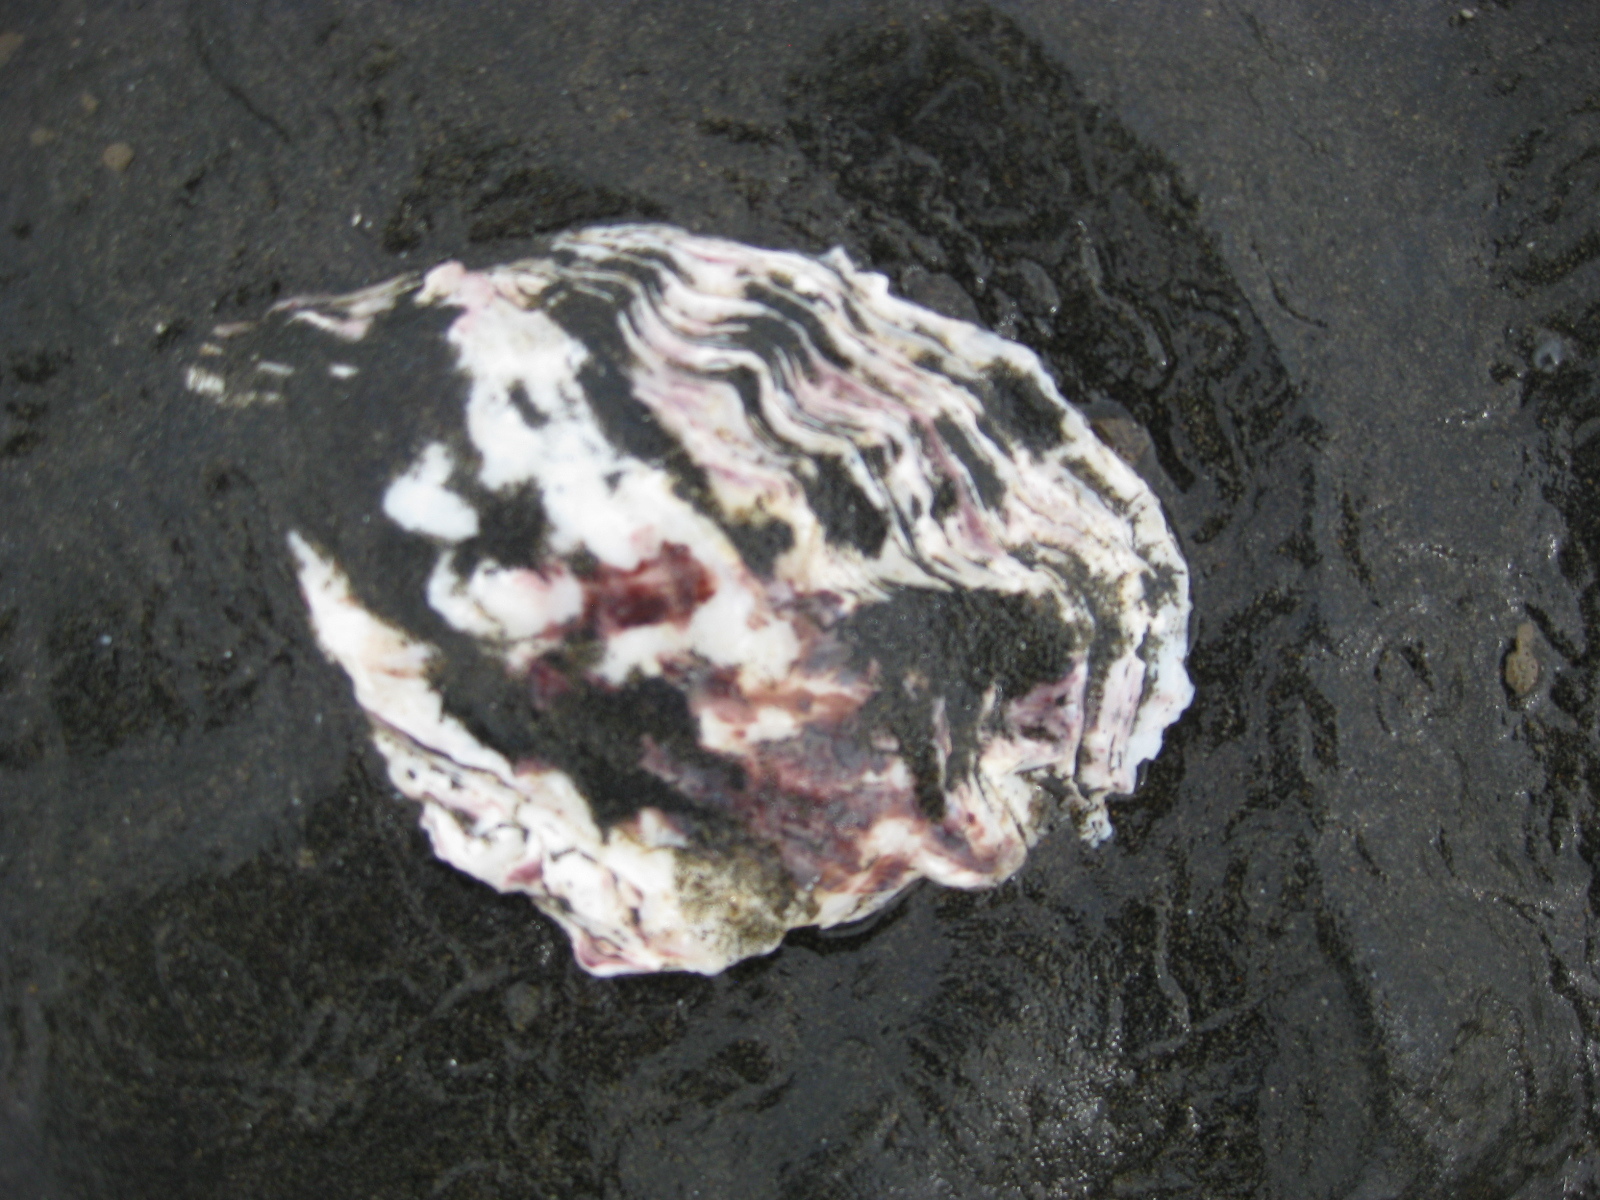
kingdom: Animalia
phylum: Mollusca
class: Bivalvia
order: Ostreida
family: Ostreidae
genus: Magallana
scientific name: Magallana gigas
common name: Pacific oyster
